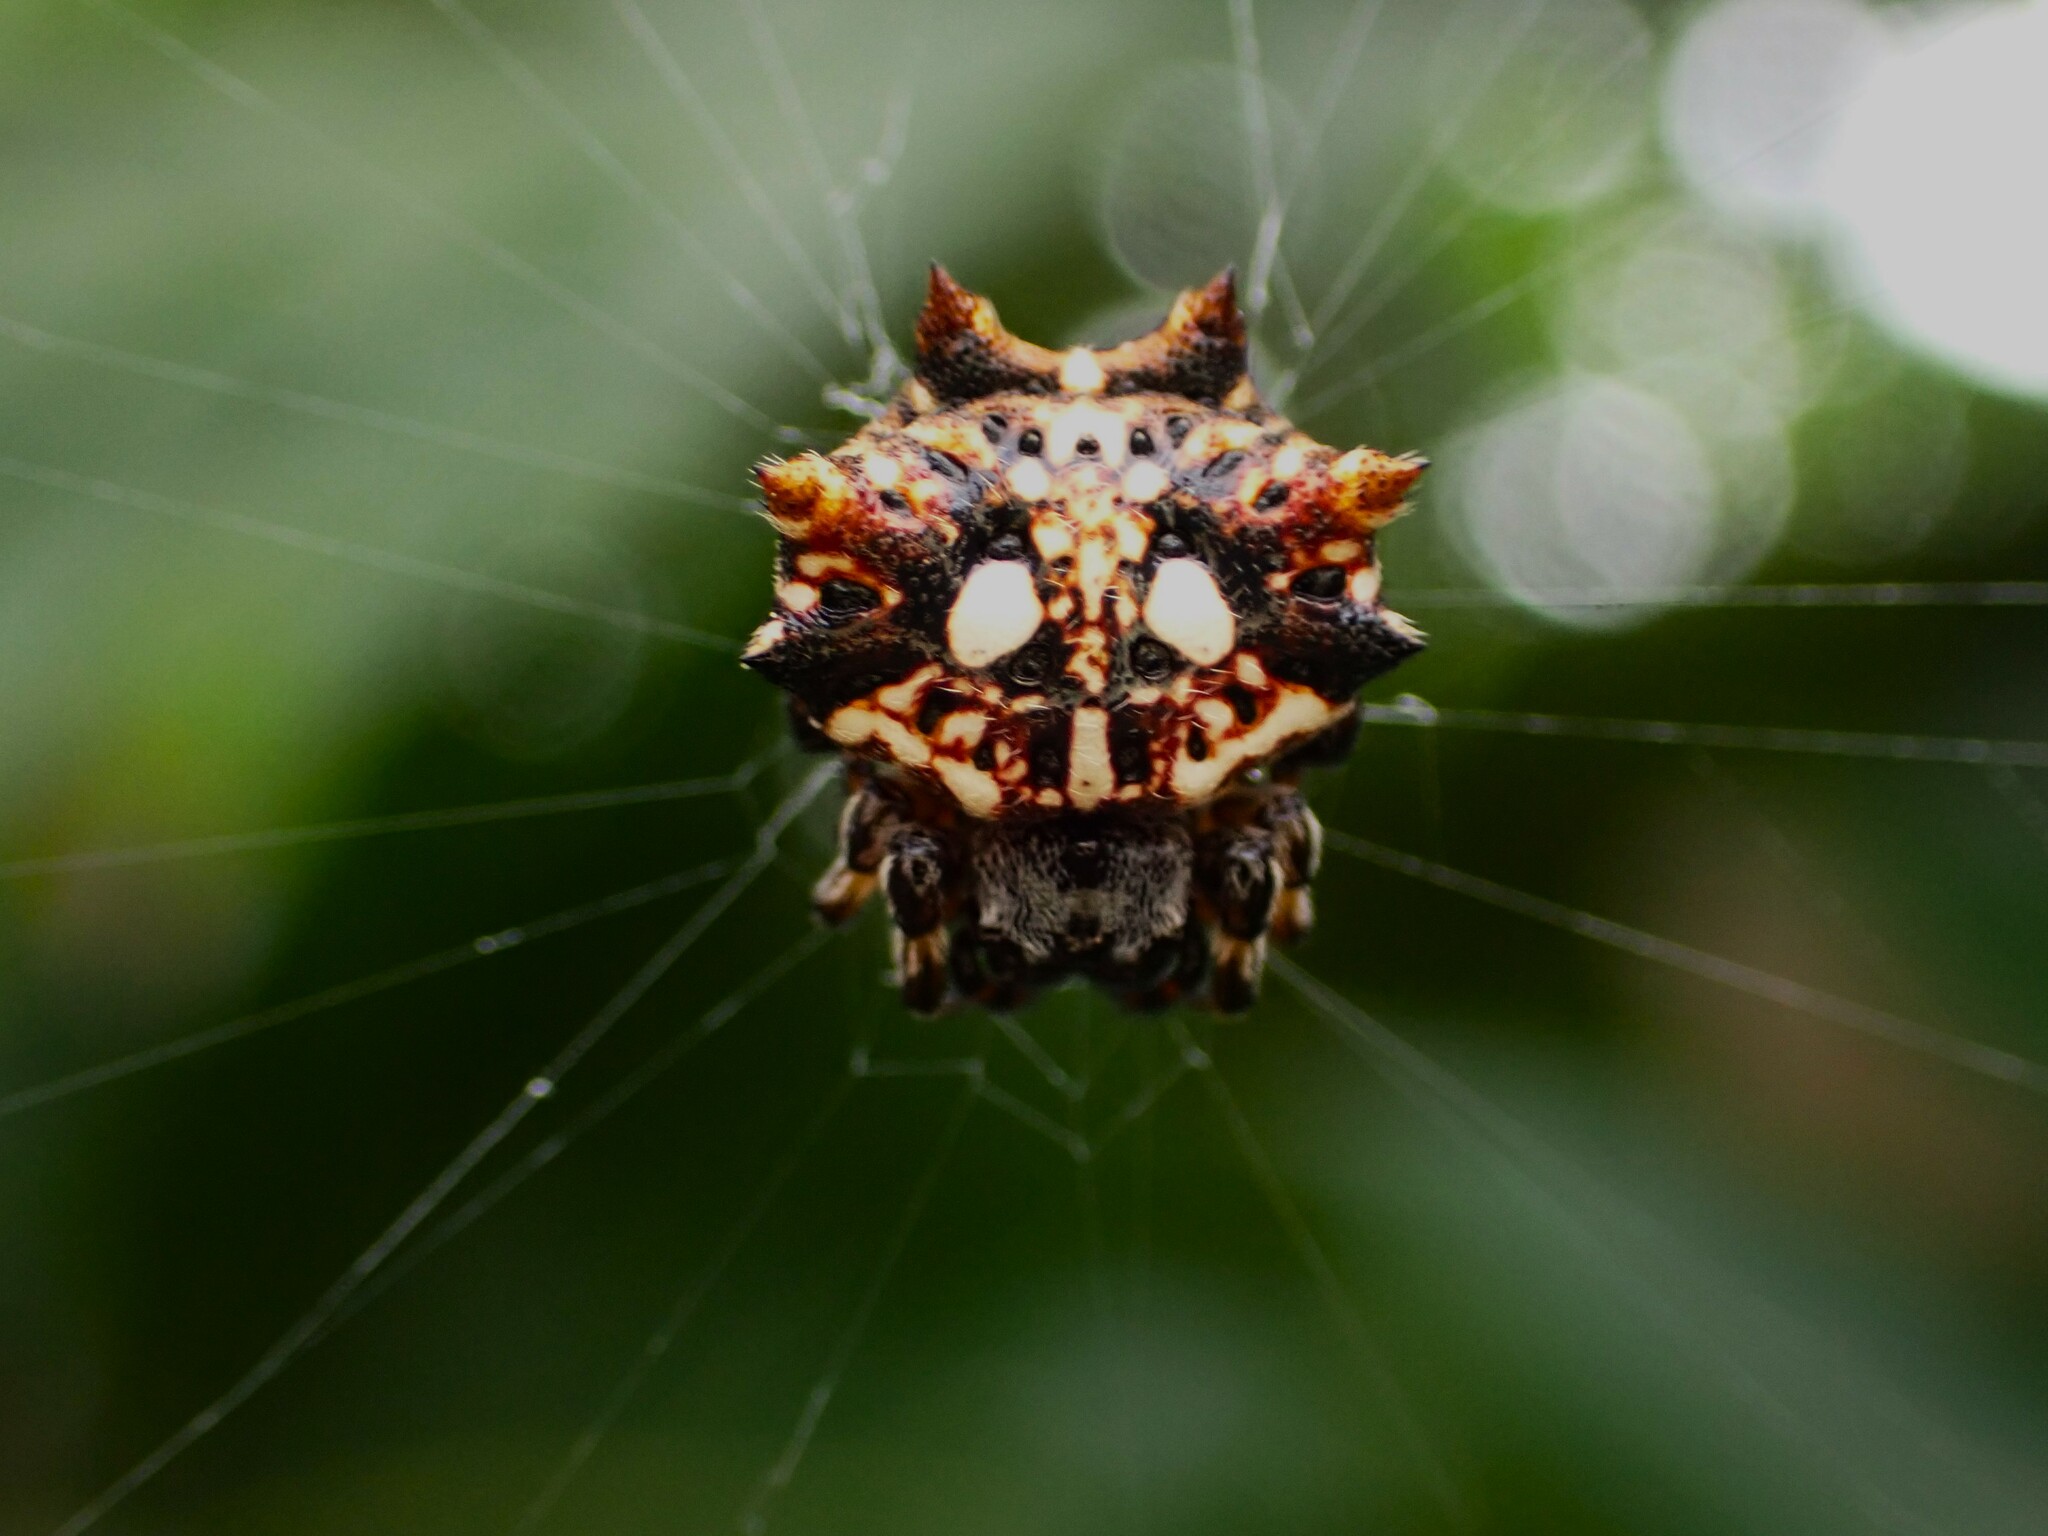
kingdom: Animalia
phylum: Arthropoda
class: Arachnida
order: Araneae
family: Araneidae
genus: Thelacantha
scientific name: Thelacantha brevispina
